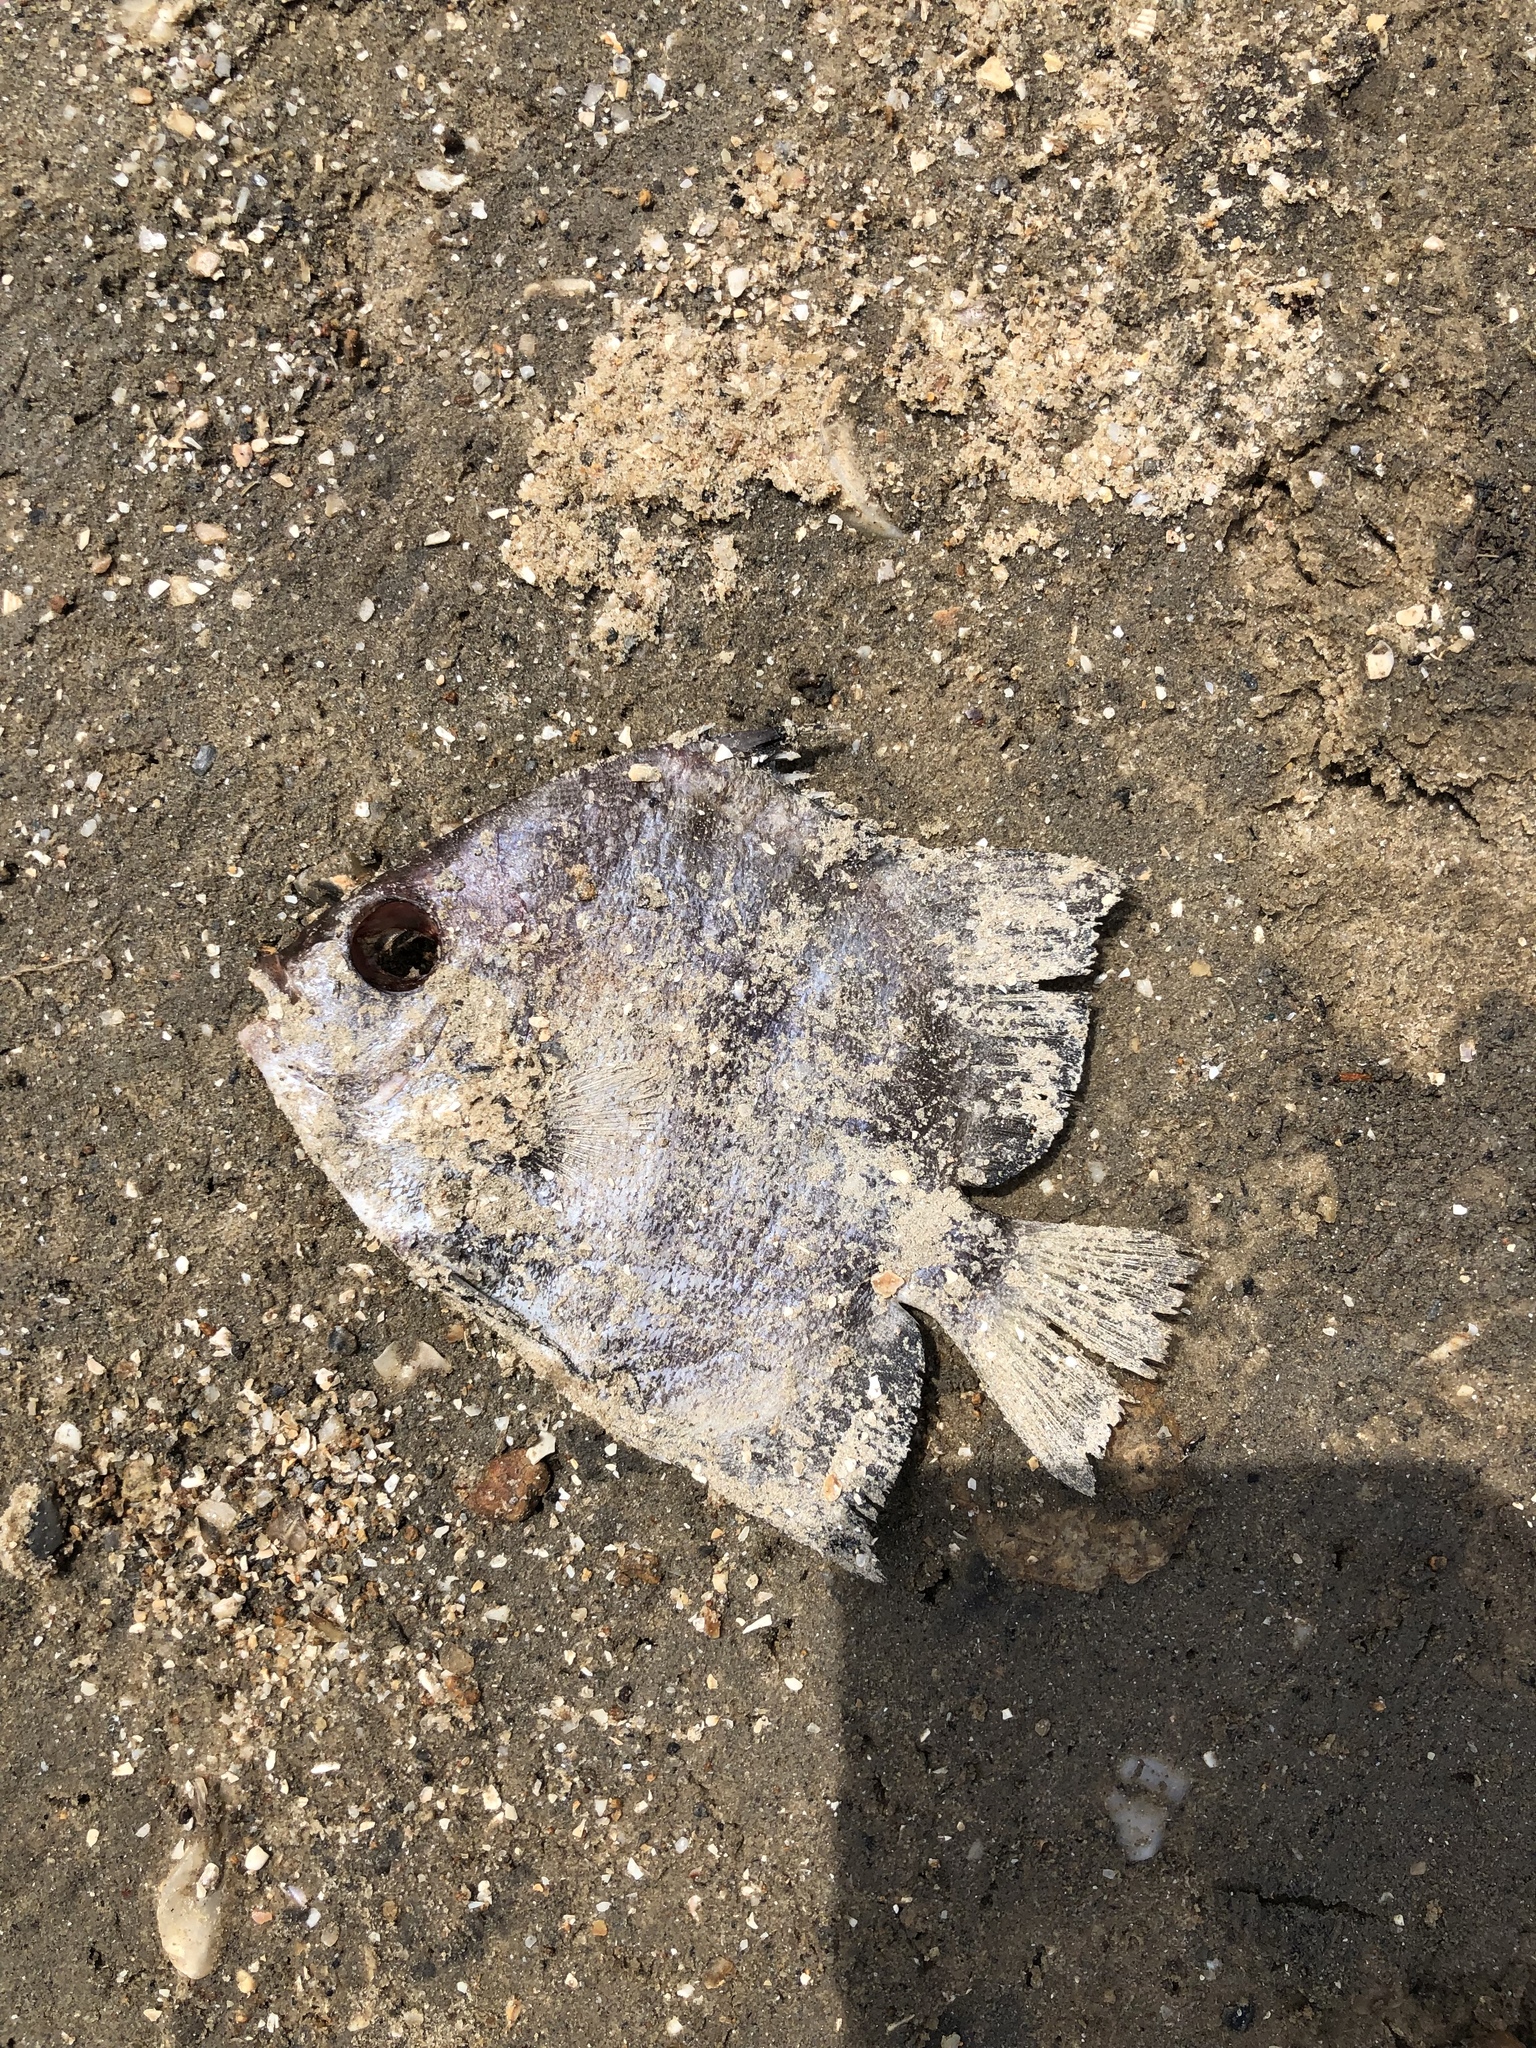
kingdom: Animalia
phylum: Chordata
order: Perciformes
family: Ephippidae
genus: Chaetodipterus
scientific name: Chaetodipterus faber
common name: Ocean cobbler
